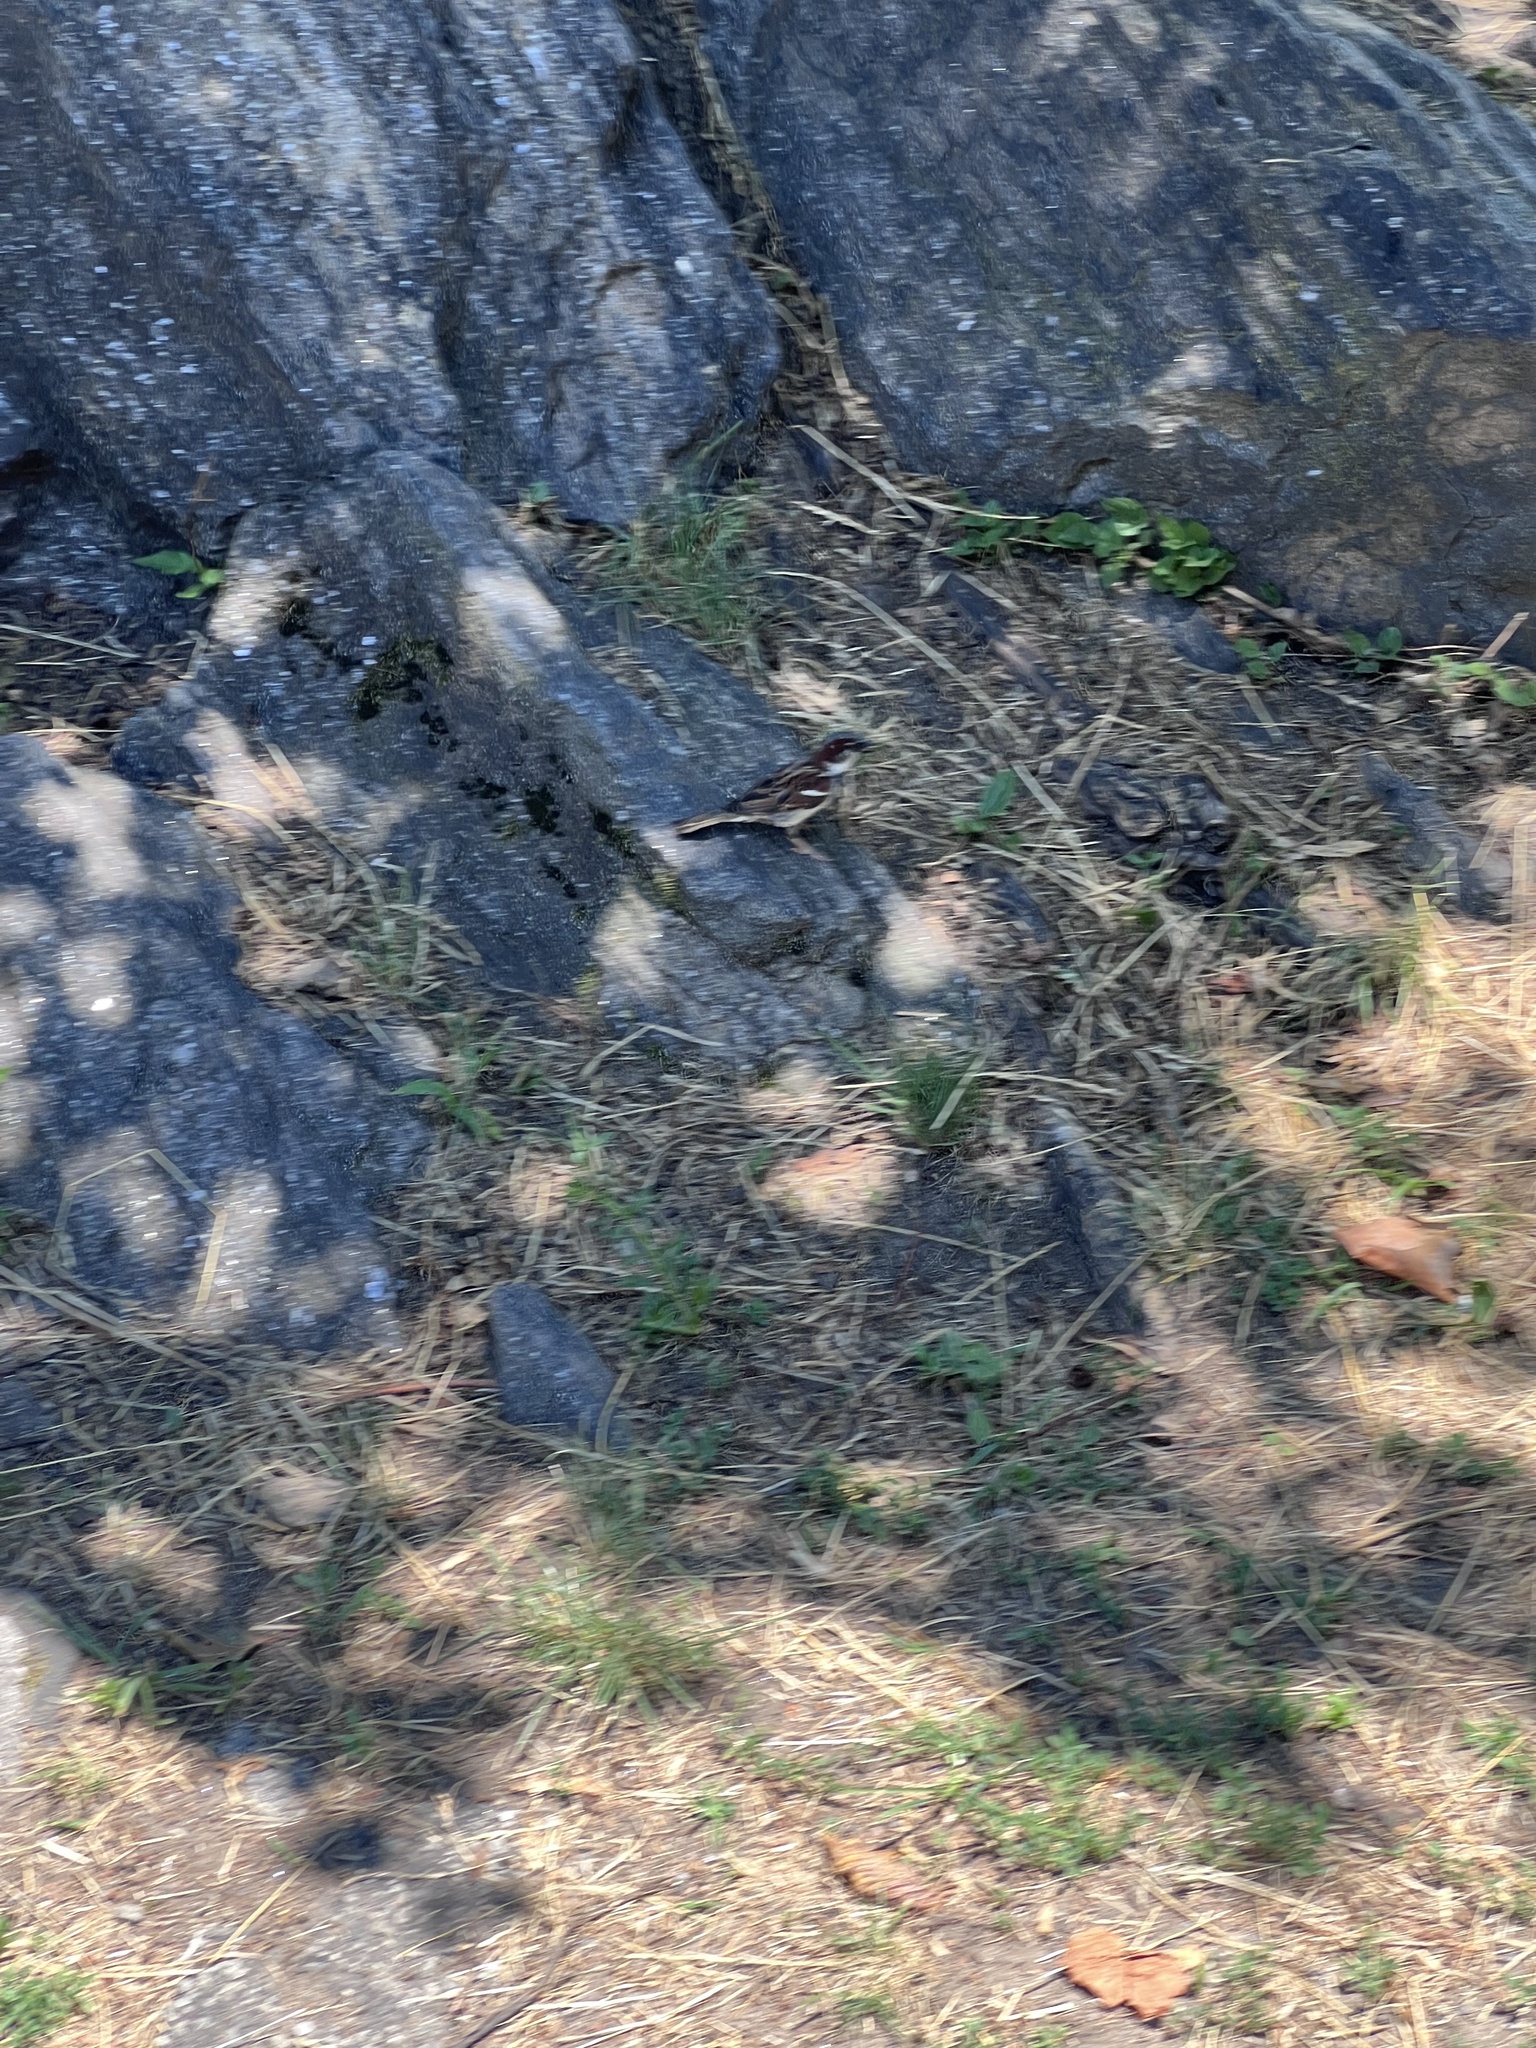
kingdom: Animalia
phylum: Chordata
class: Aves
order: Passeriformes
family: Passeridae
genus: Passer
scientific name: Passer domesticus
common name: House sparrow
